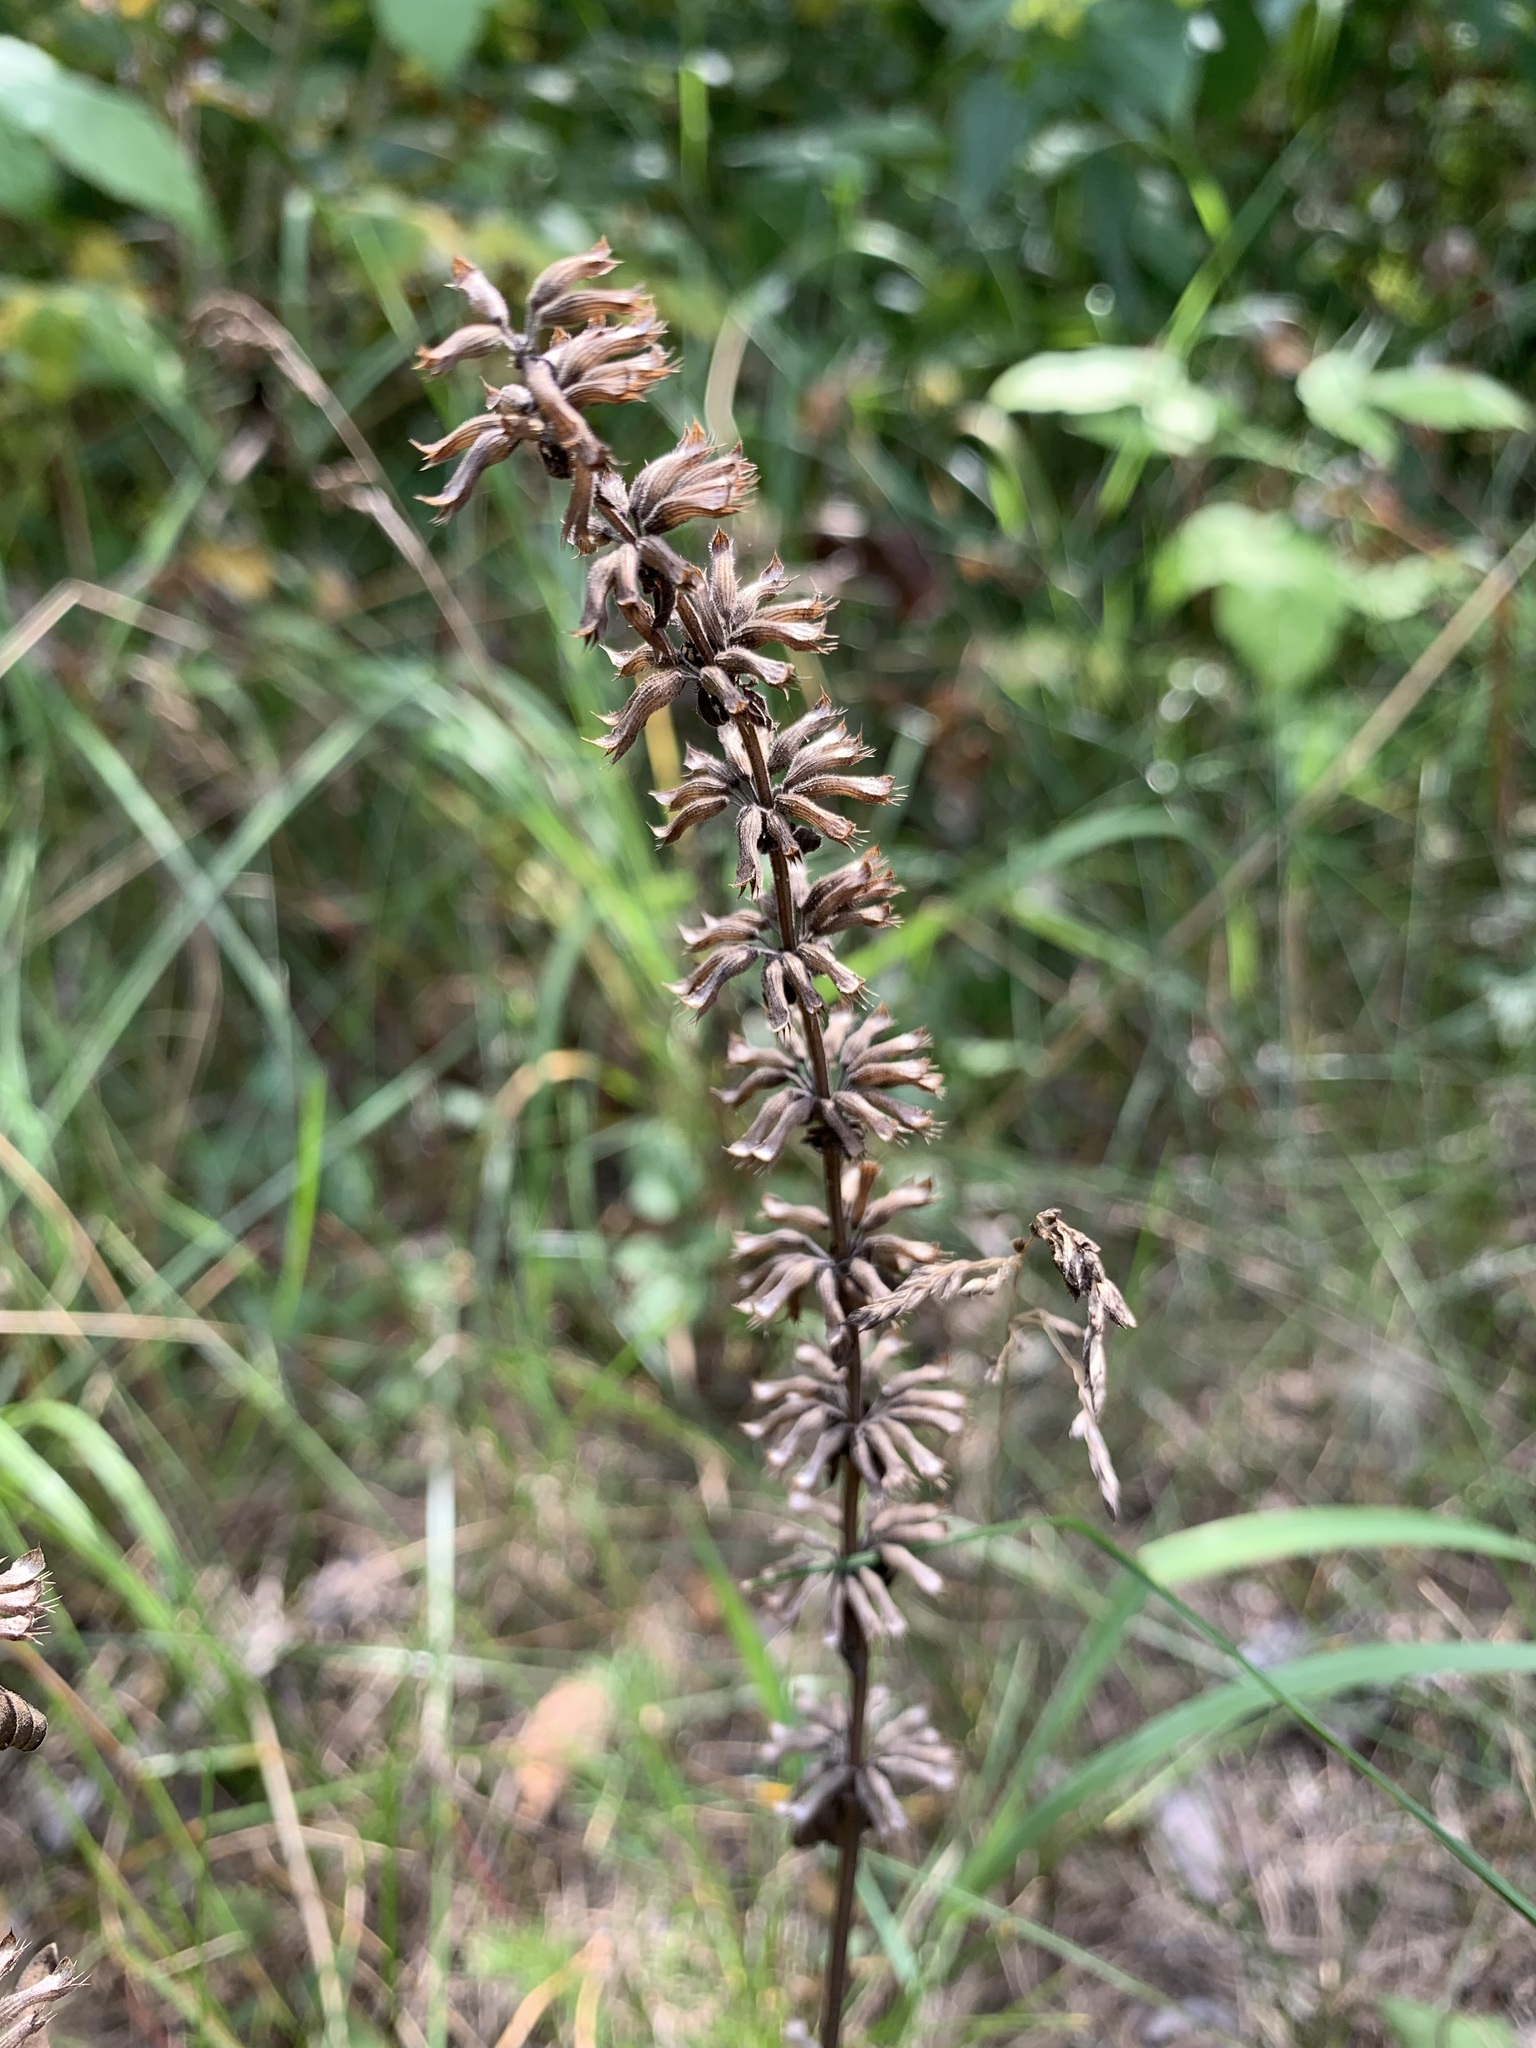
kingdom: Plantae
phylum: Tracheophyta
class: Magnoliopsida
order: Lamiales
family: Lamiaceae
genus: Dracocephalum
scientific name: Dracocephalum thymiflorum
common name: Thymeleaf dragonhead
